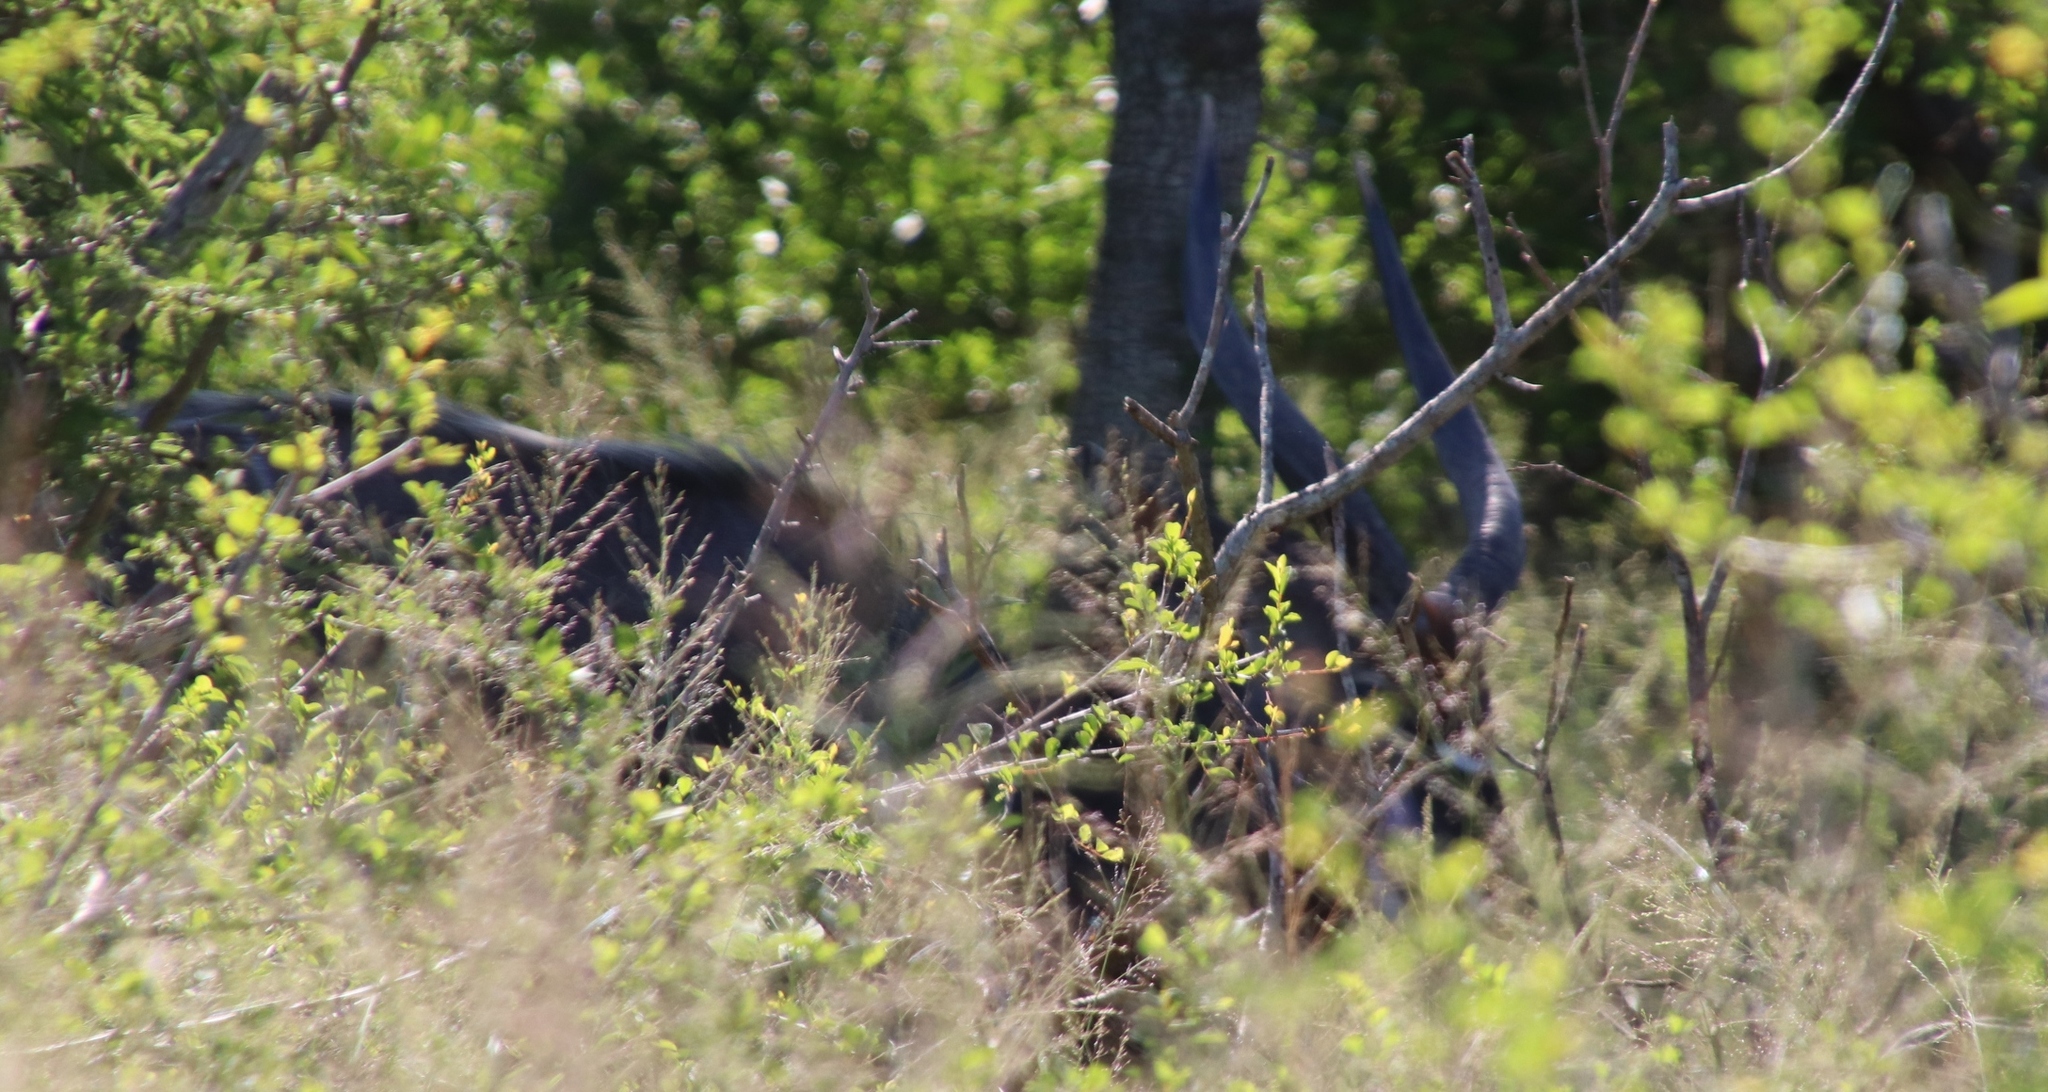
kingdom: Animalia
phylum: Chordata
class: Mammalia
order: Artiodactyla
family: Bovidae
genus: Tragelaphus
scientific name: Tragelaphus angasii
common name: Nyala
